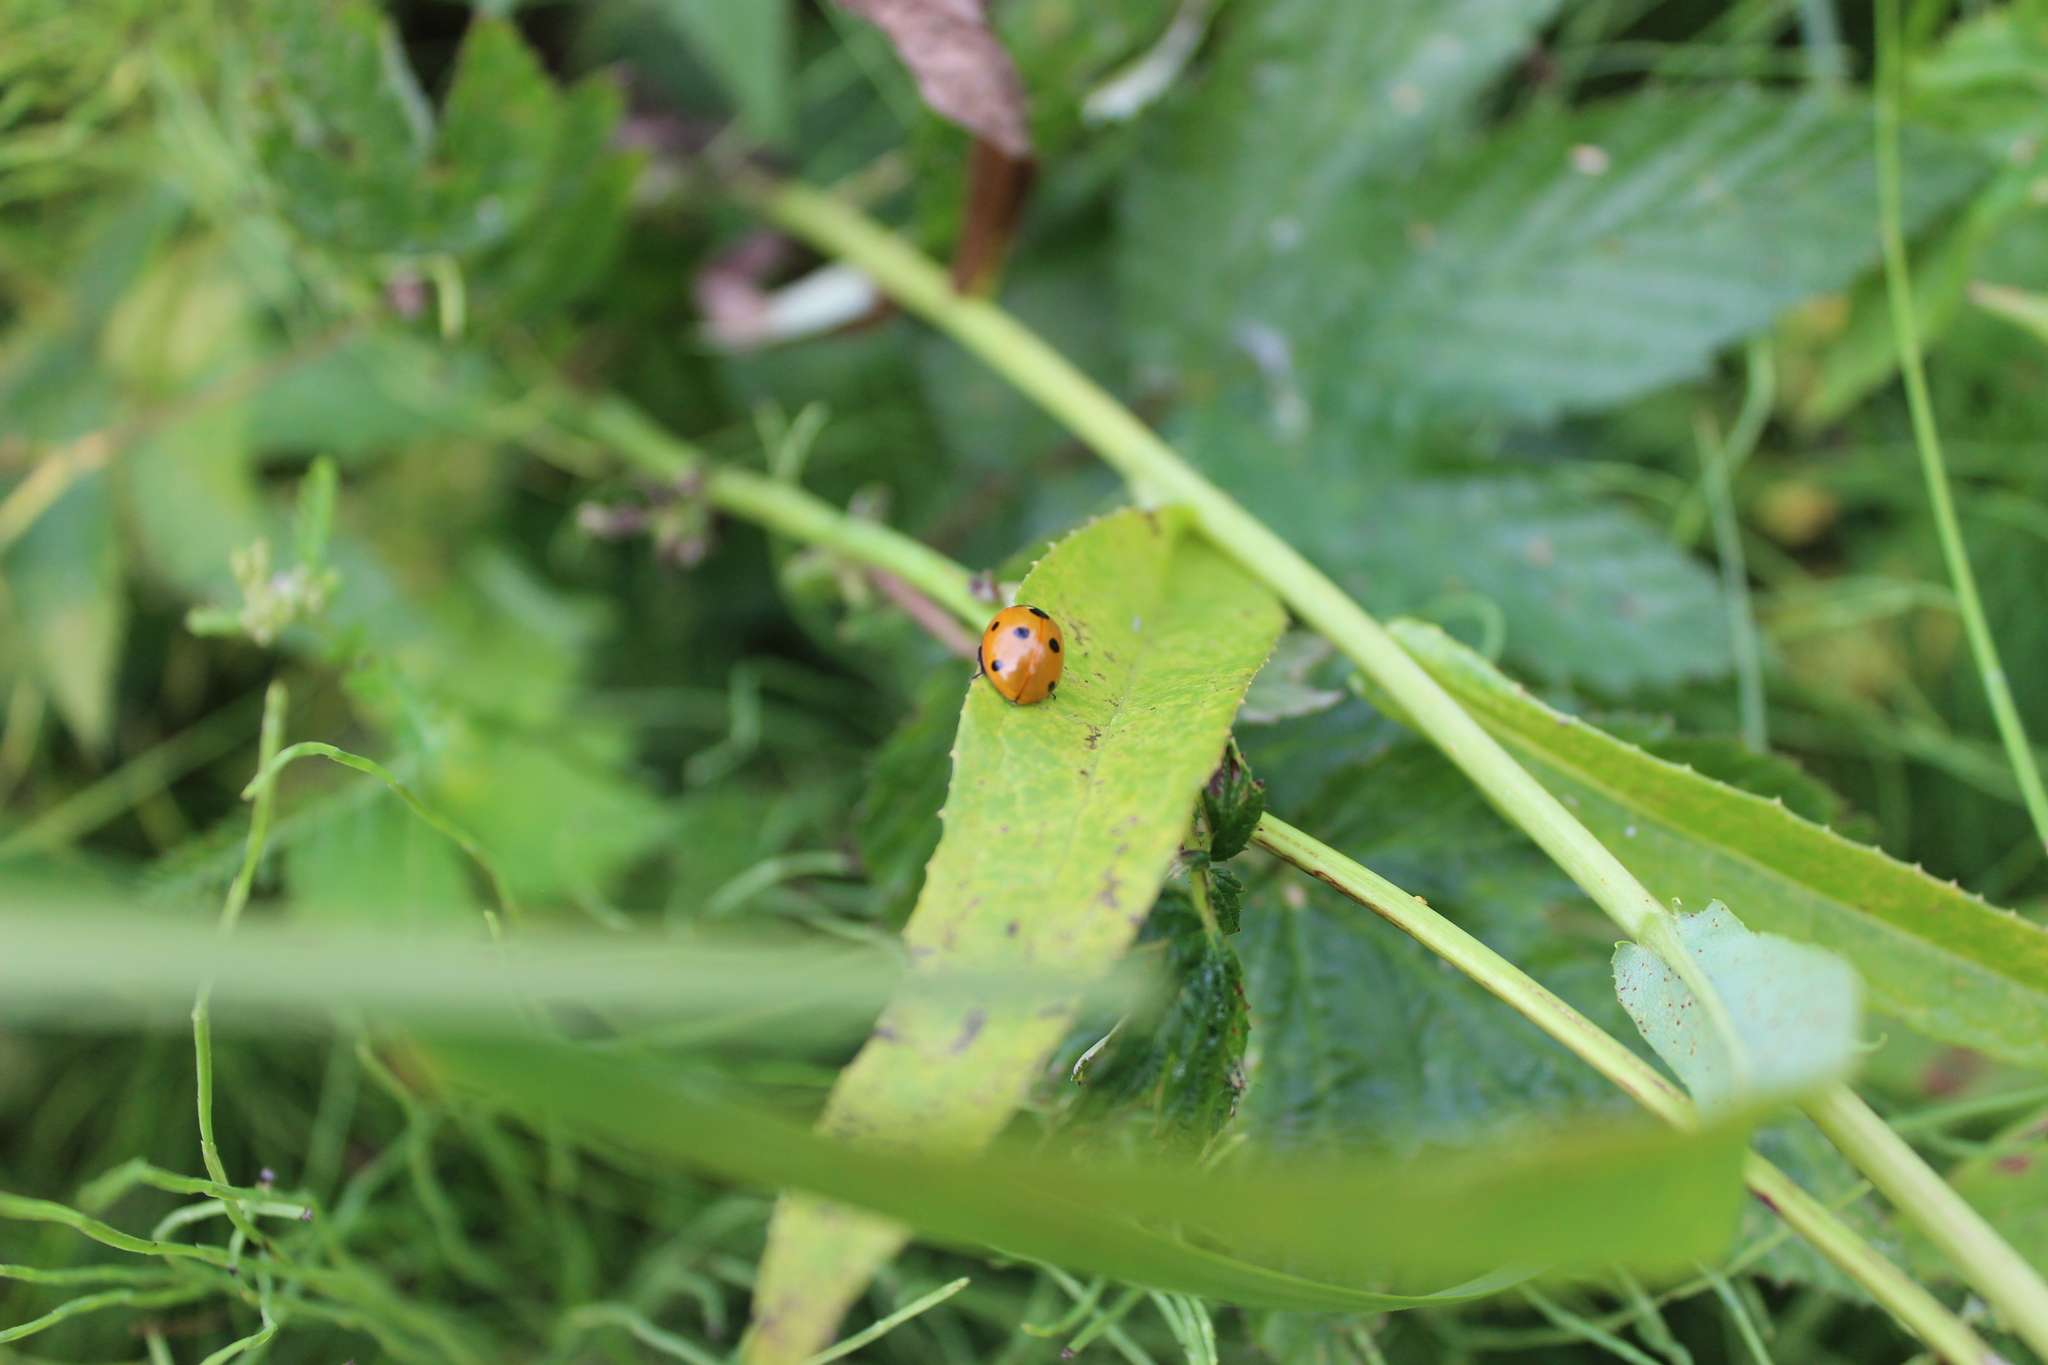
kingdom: Animalia
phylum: Arthropoda
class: Insecta
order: Coleoptera
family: Coccinellidae
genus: Coccinella
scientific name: Coccinella septempunctata
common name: Sevenspotted lady beetle
